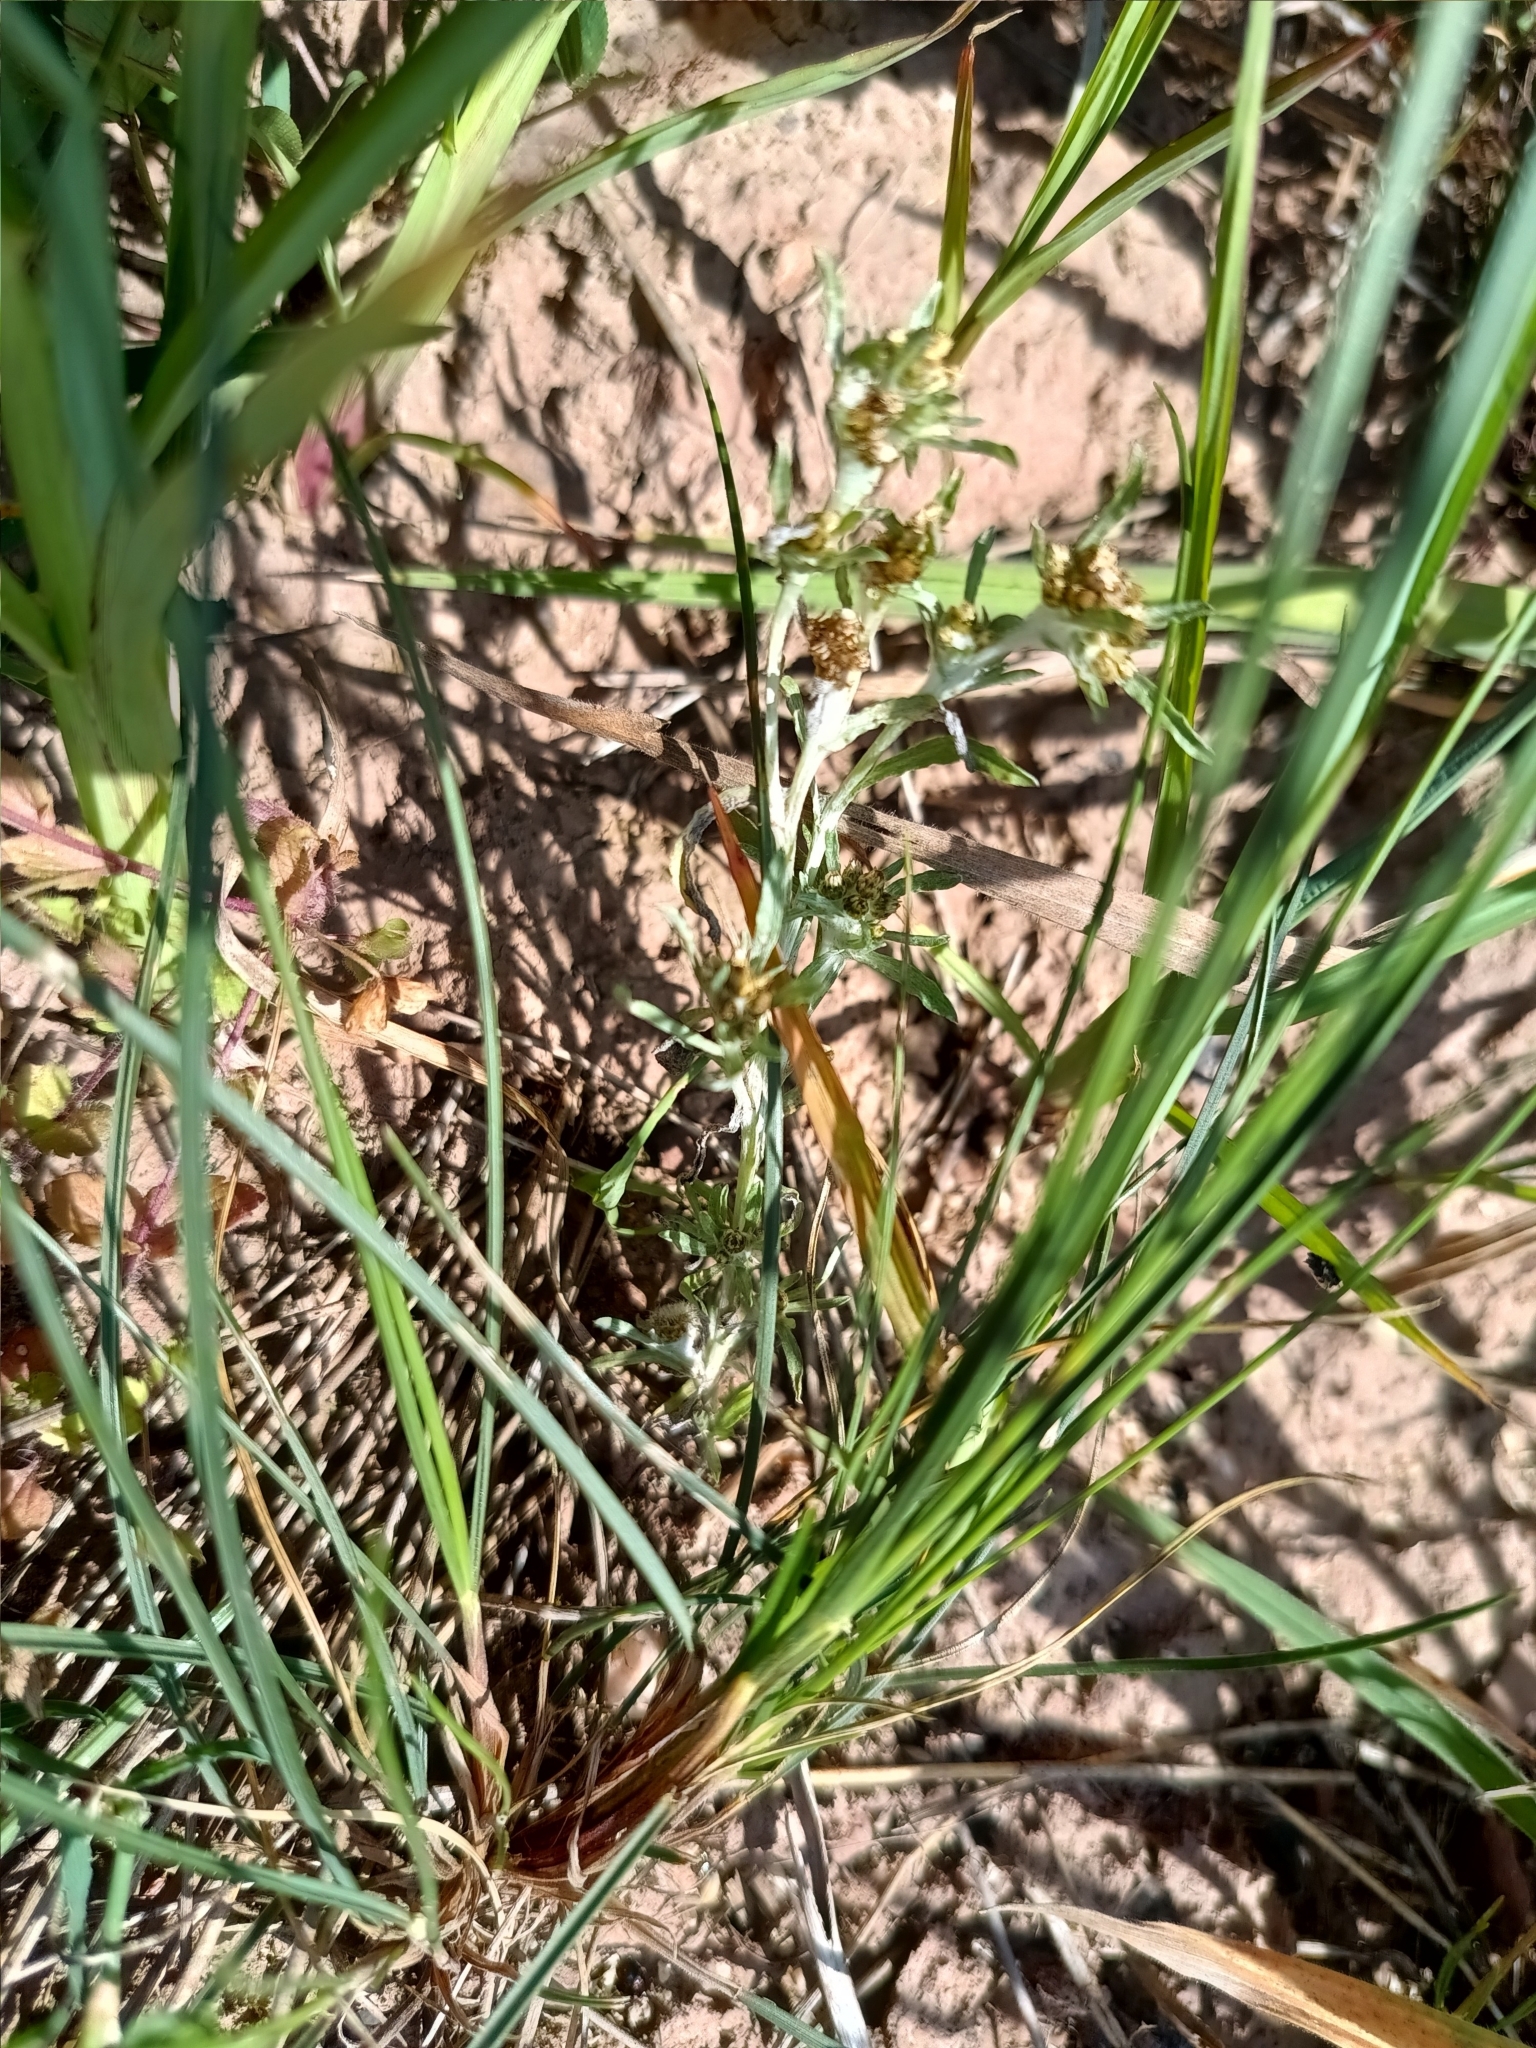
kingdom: Plantae
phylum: Tracheophyta
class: Magnoliopsida
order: Asterales
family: Asteraceae
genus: Gnaphalium
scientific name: Gnaphalium uliginosum
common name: Marsh cudweed
